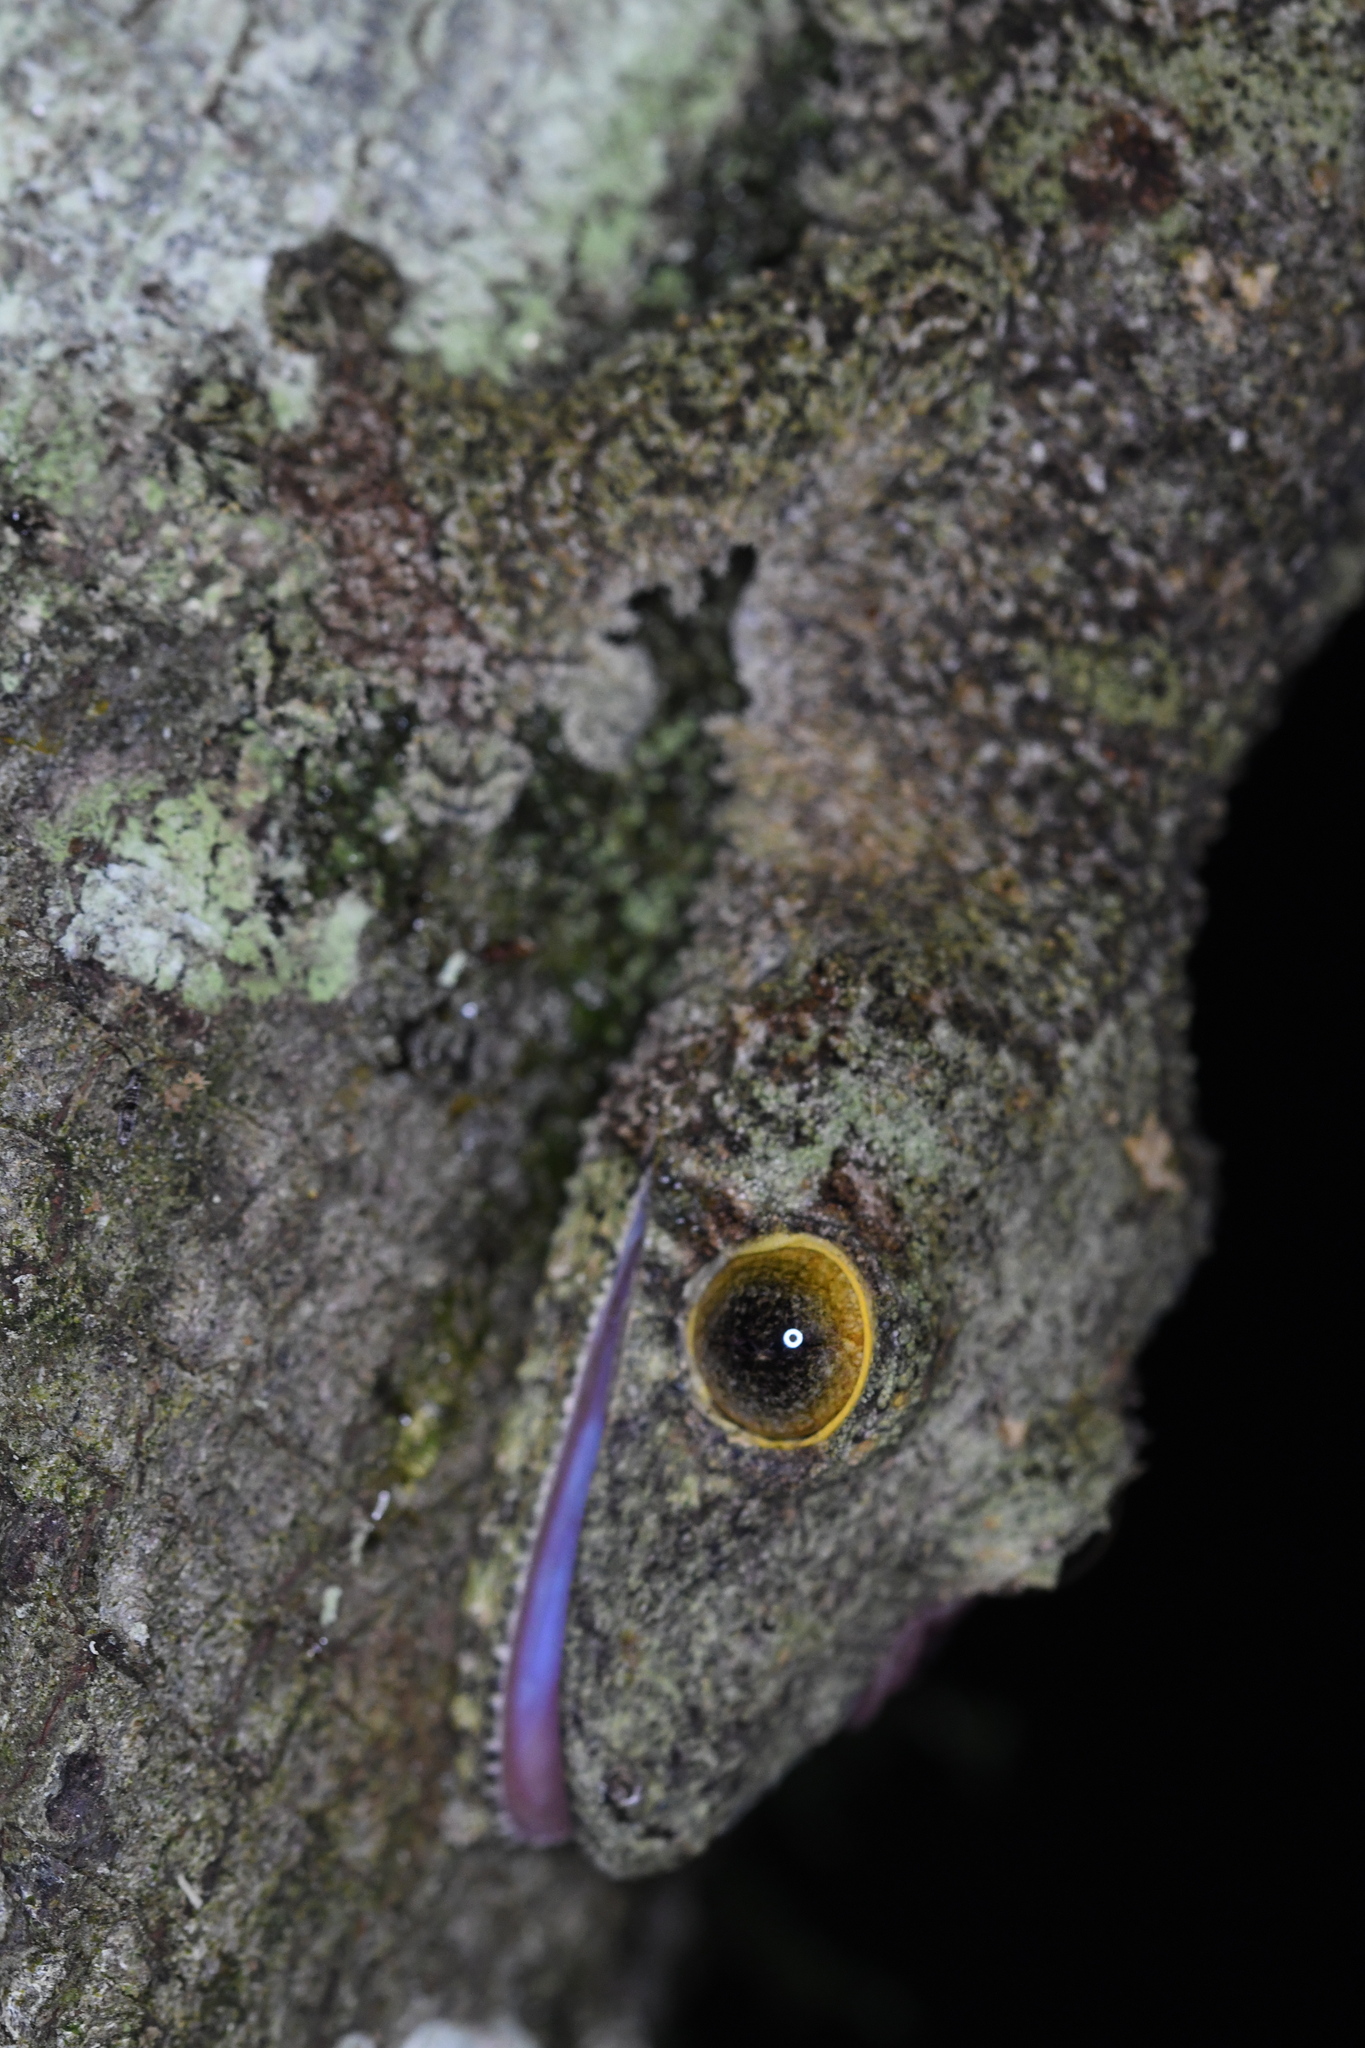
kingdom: Animalia
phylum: Chordata
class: Squamata
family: Gekkonidae
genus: Uroplatus
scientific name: Uroplatus sikorae
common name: Southern flat-tail gecko
